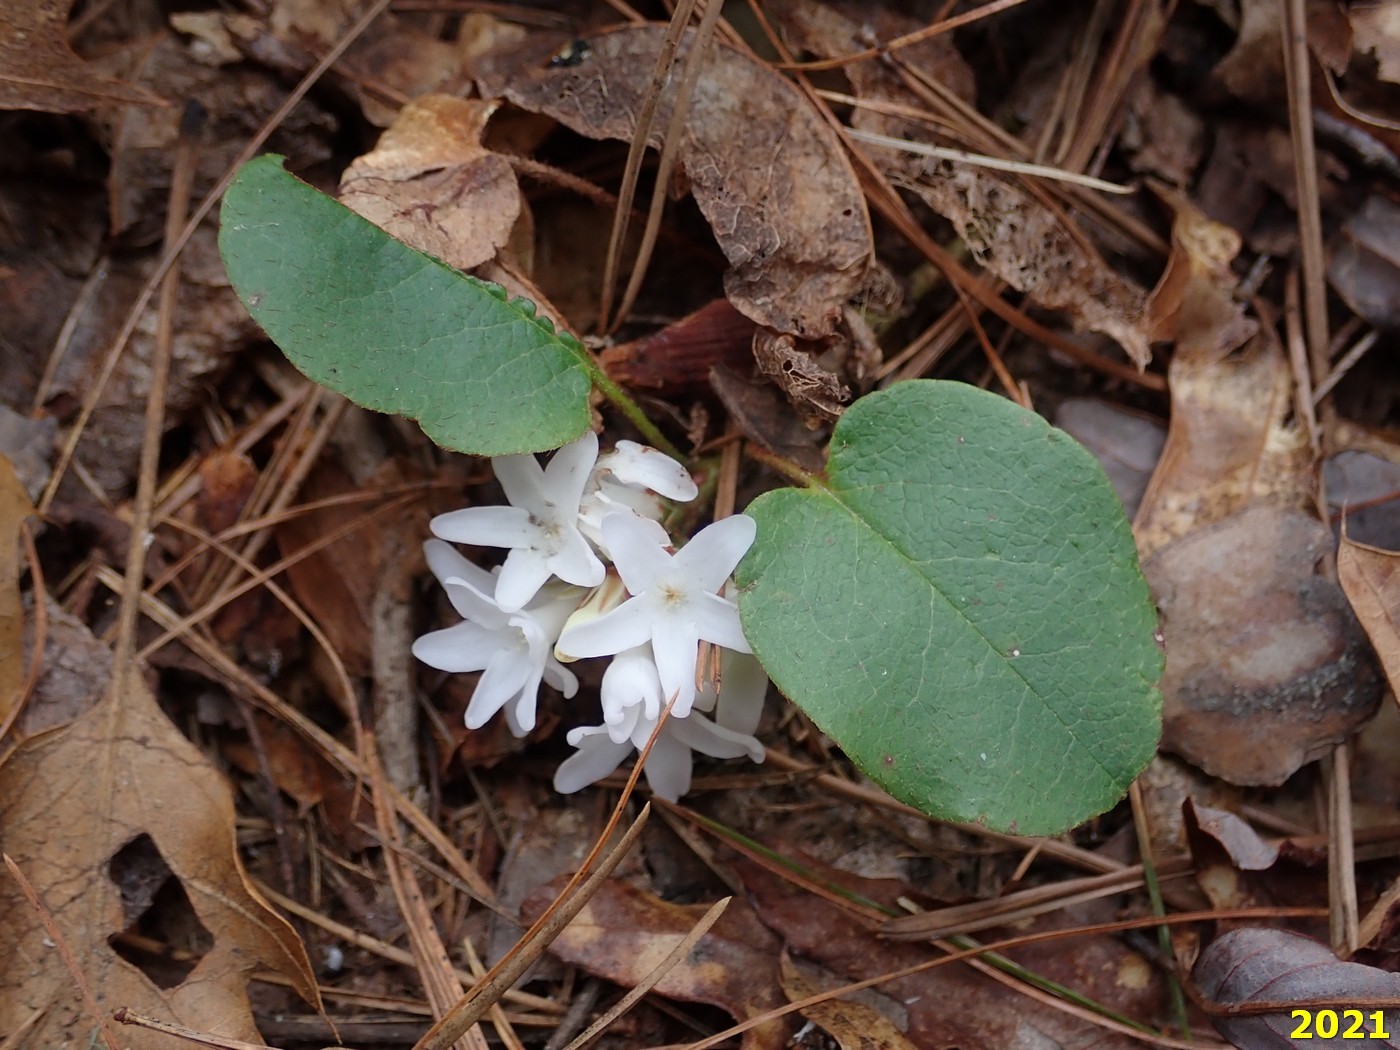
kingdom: Plantae
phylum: Tracheophyta
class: Magnoliopsida
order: Ericales
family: Ericaceae
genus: Epigaea
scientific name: Epigaea repens
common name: Gravelroot
